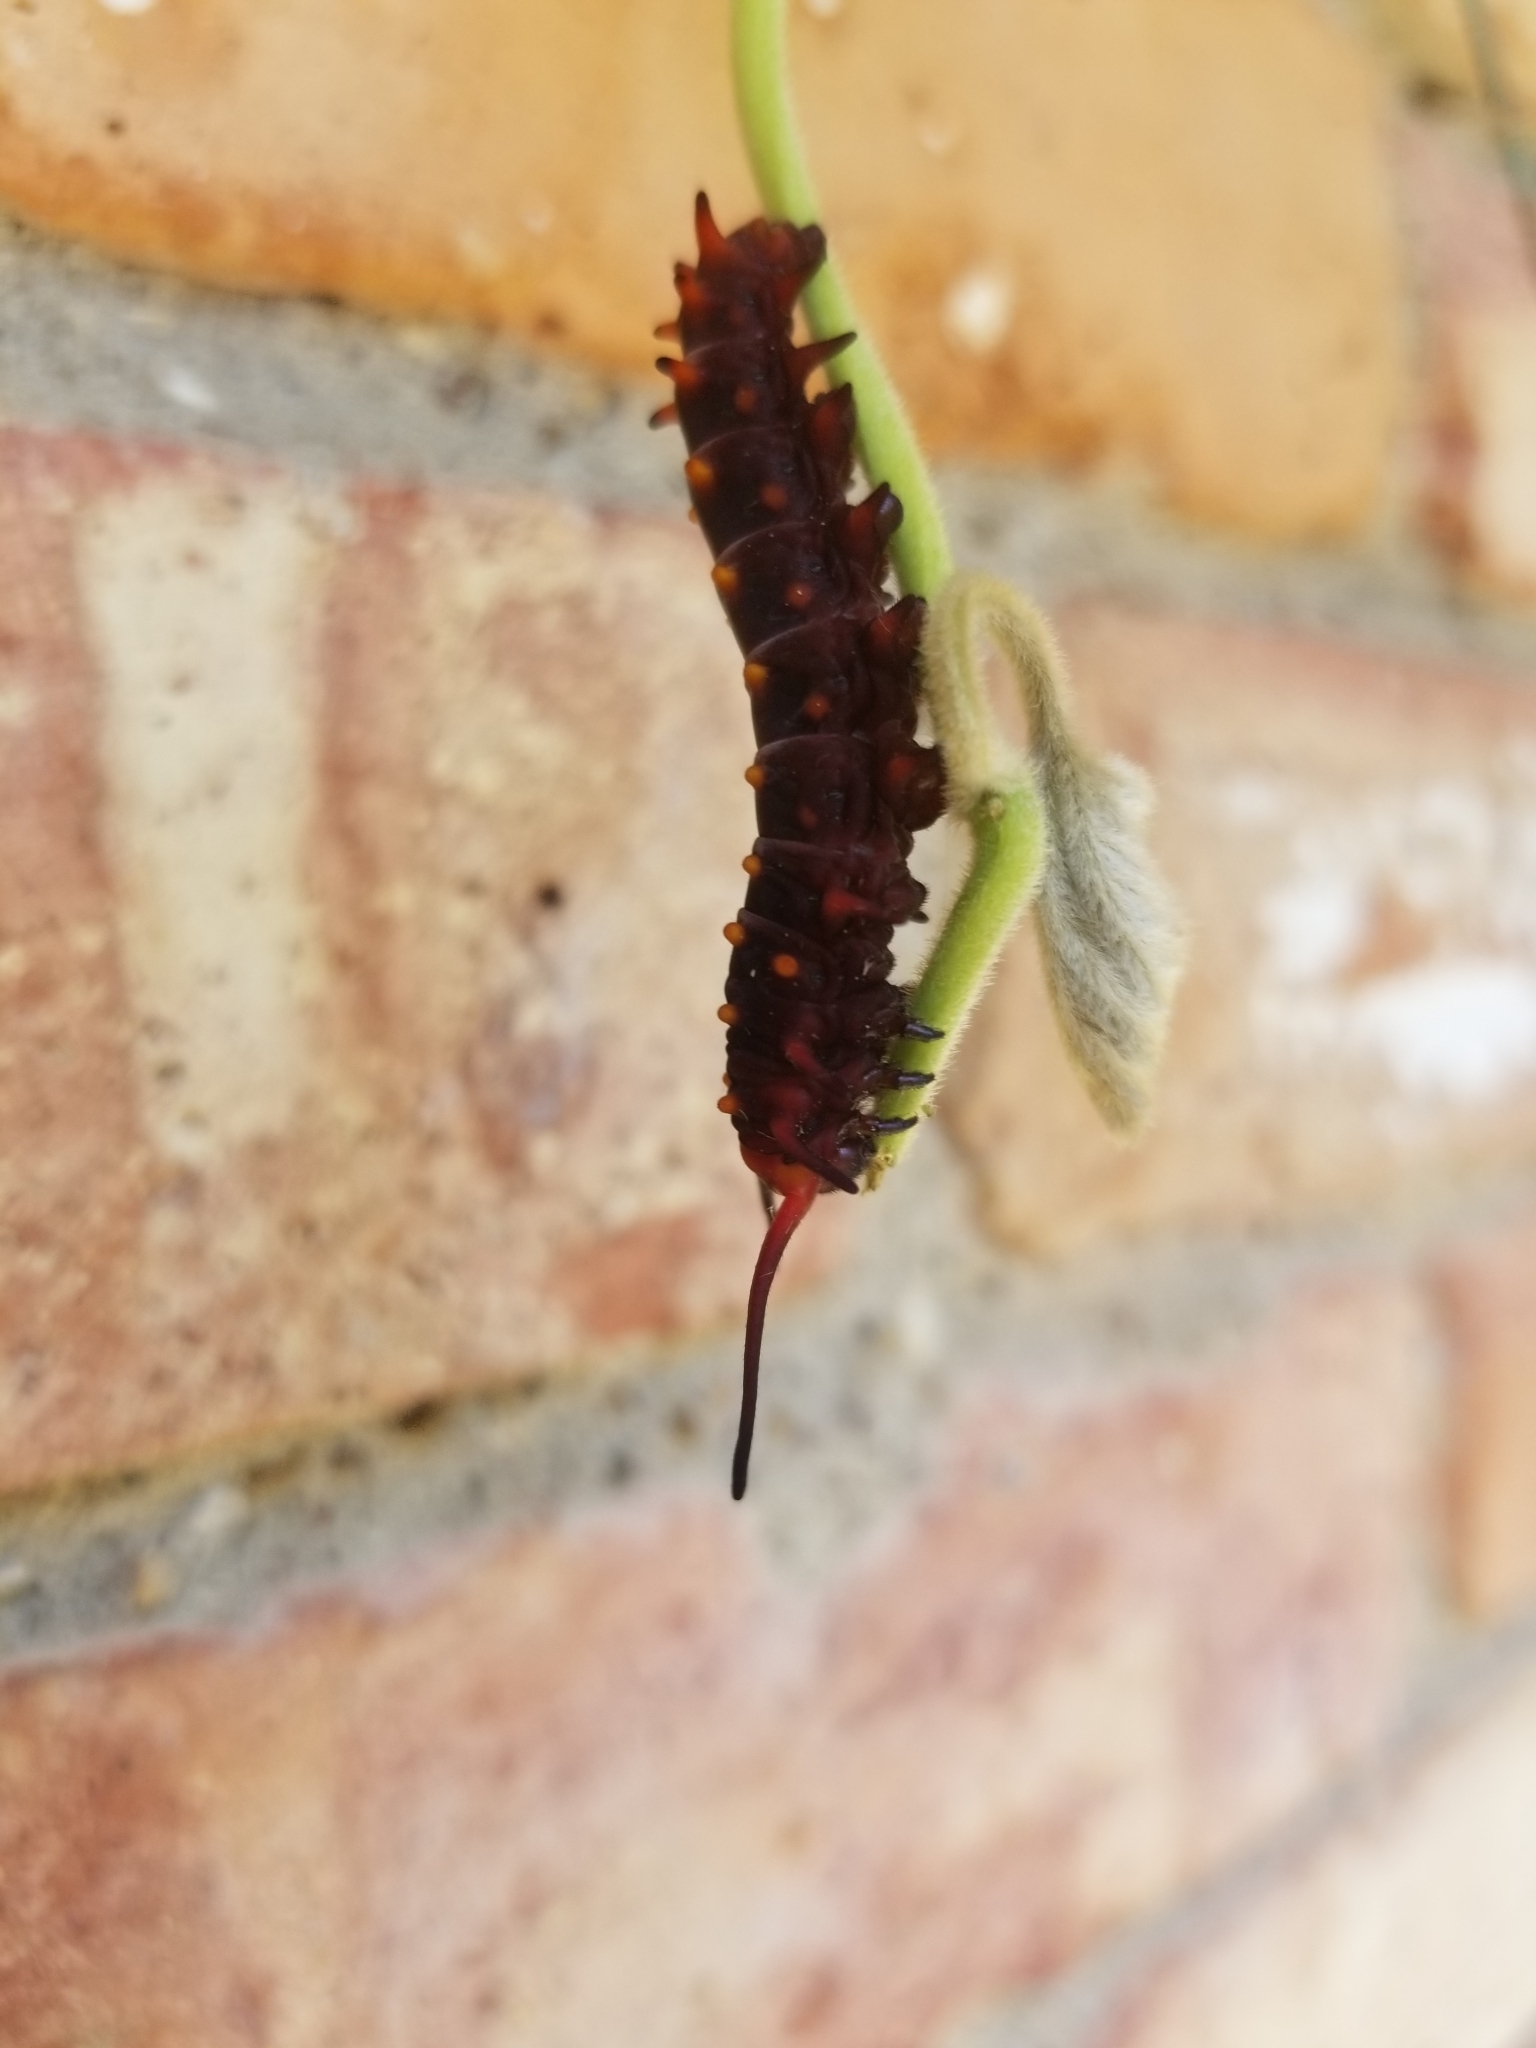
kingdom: Animalia
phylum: Arthropoda
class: Insecta
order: Lepidoptera
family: Papilionidae
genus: Battus
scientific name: Battus philenor
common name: Pipevine swallowtail
